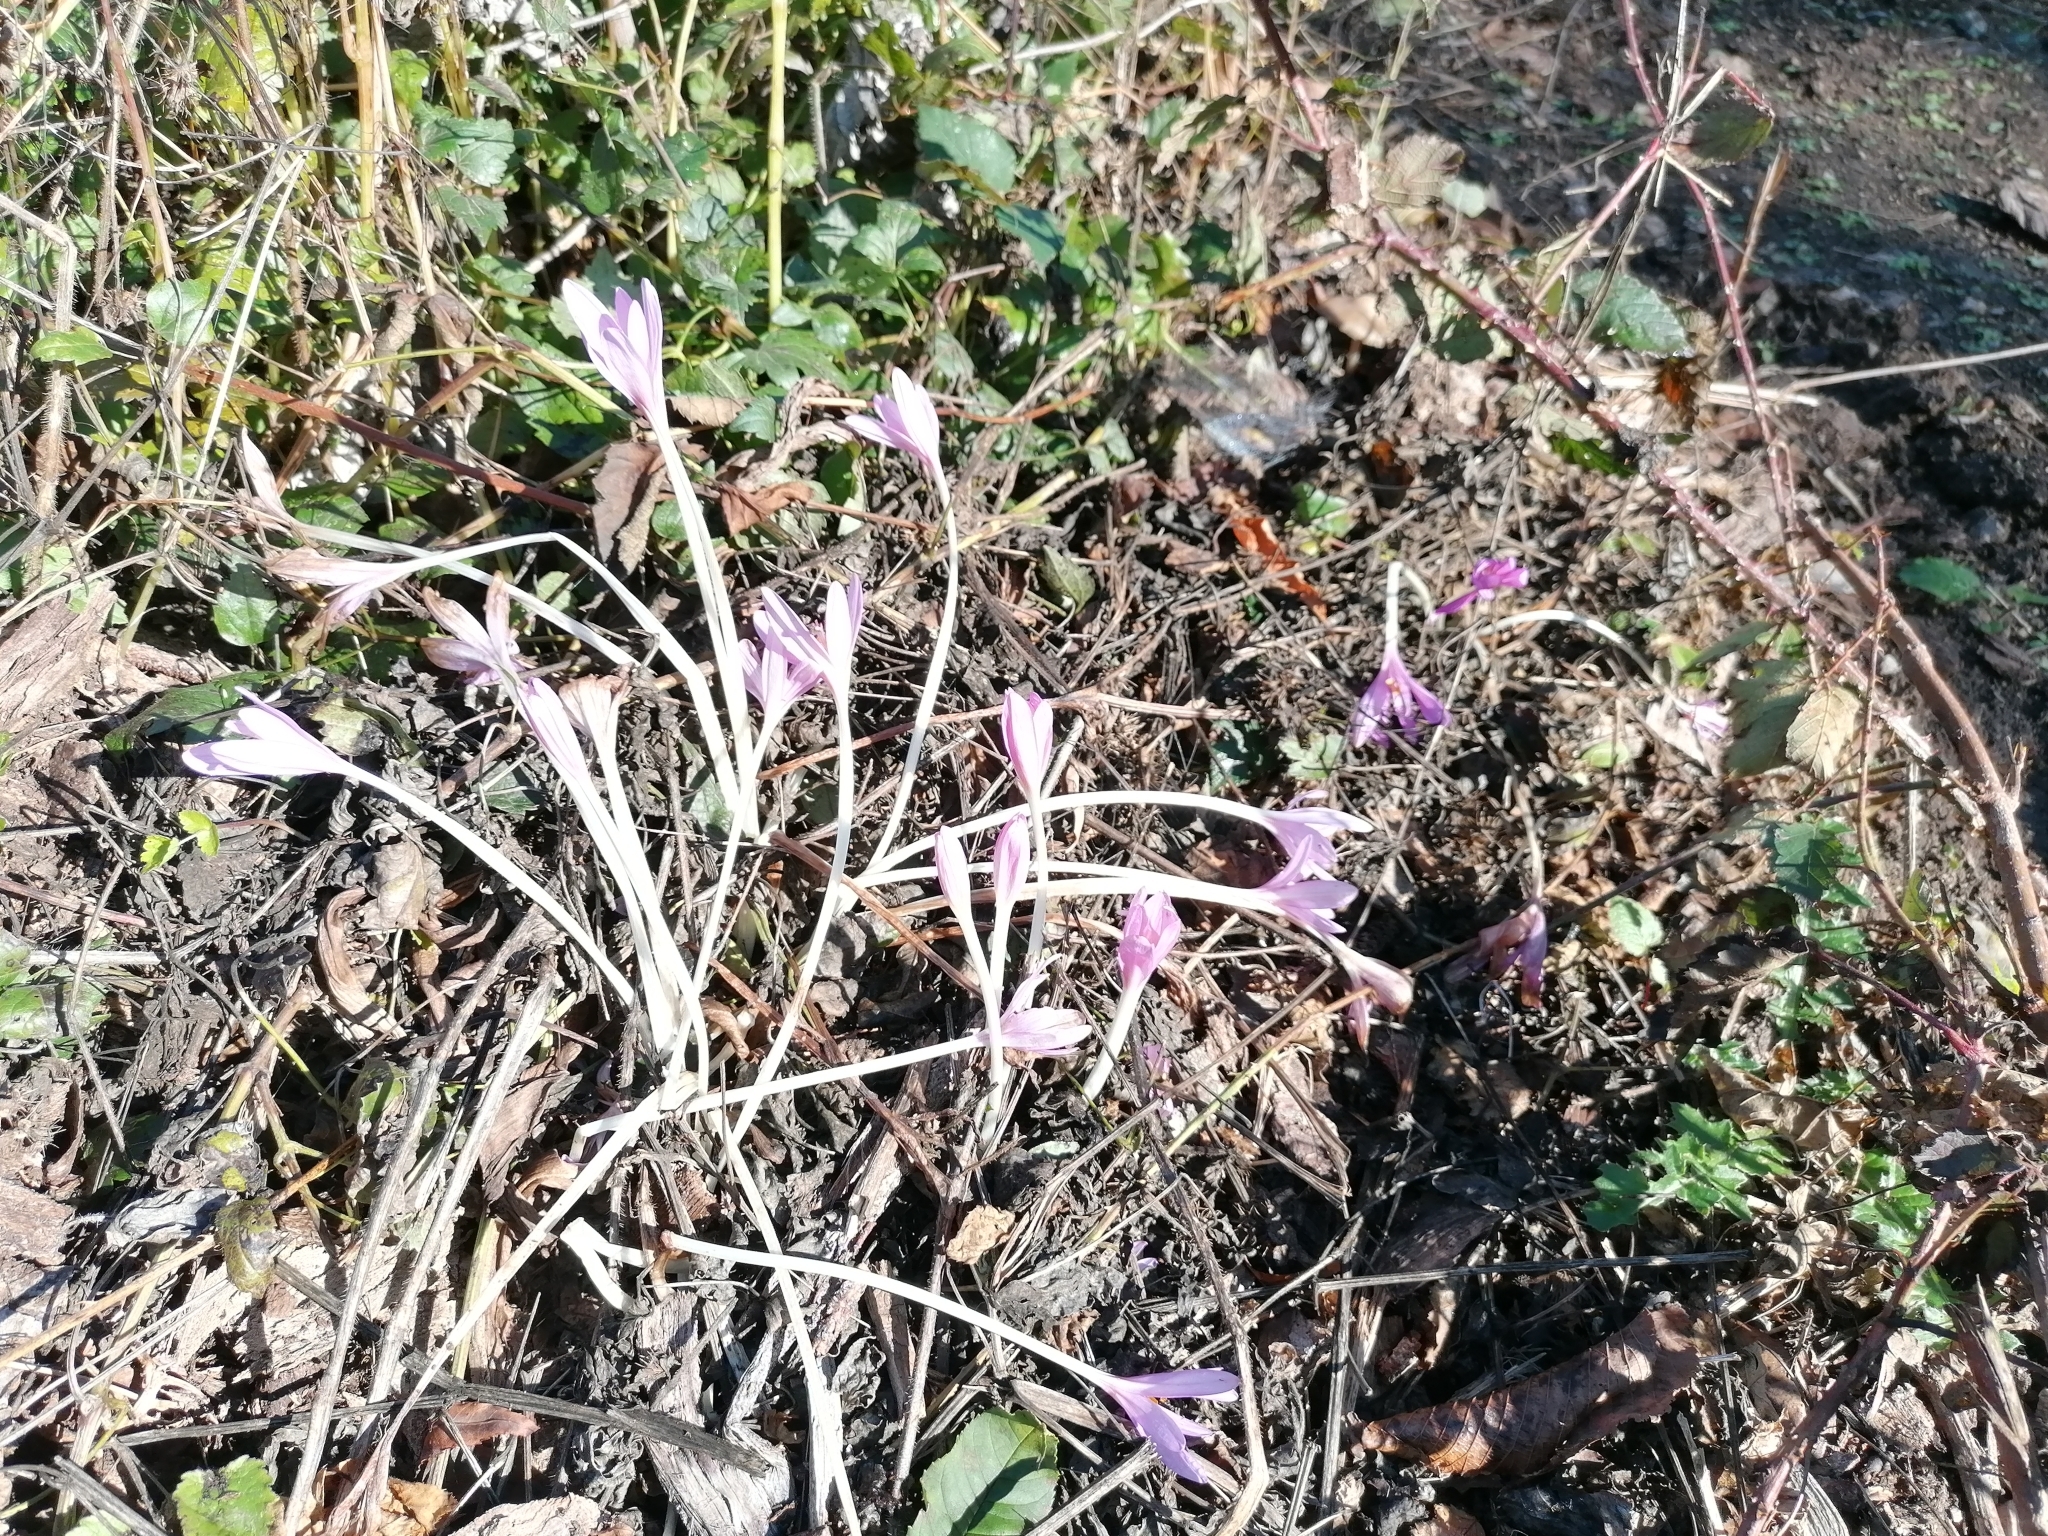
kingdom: Plantae
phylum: Tracheophyta
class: Liliopsida
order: Liliales
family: Colchicaceae
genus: Colchicum
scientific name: Colchicum autumnale
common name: Autumn crocus
